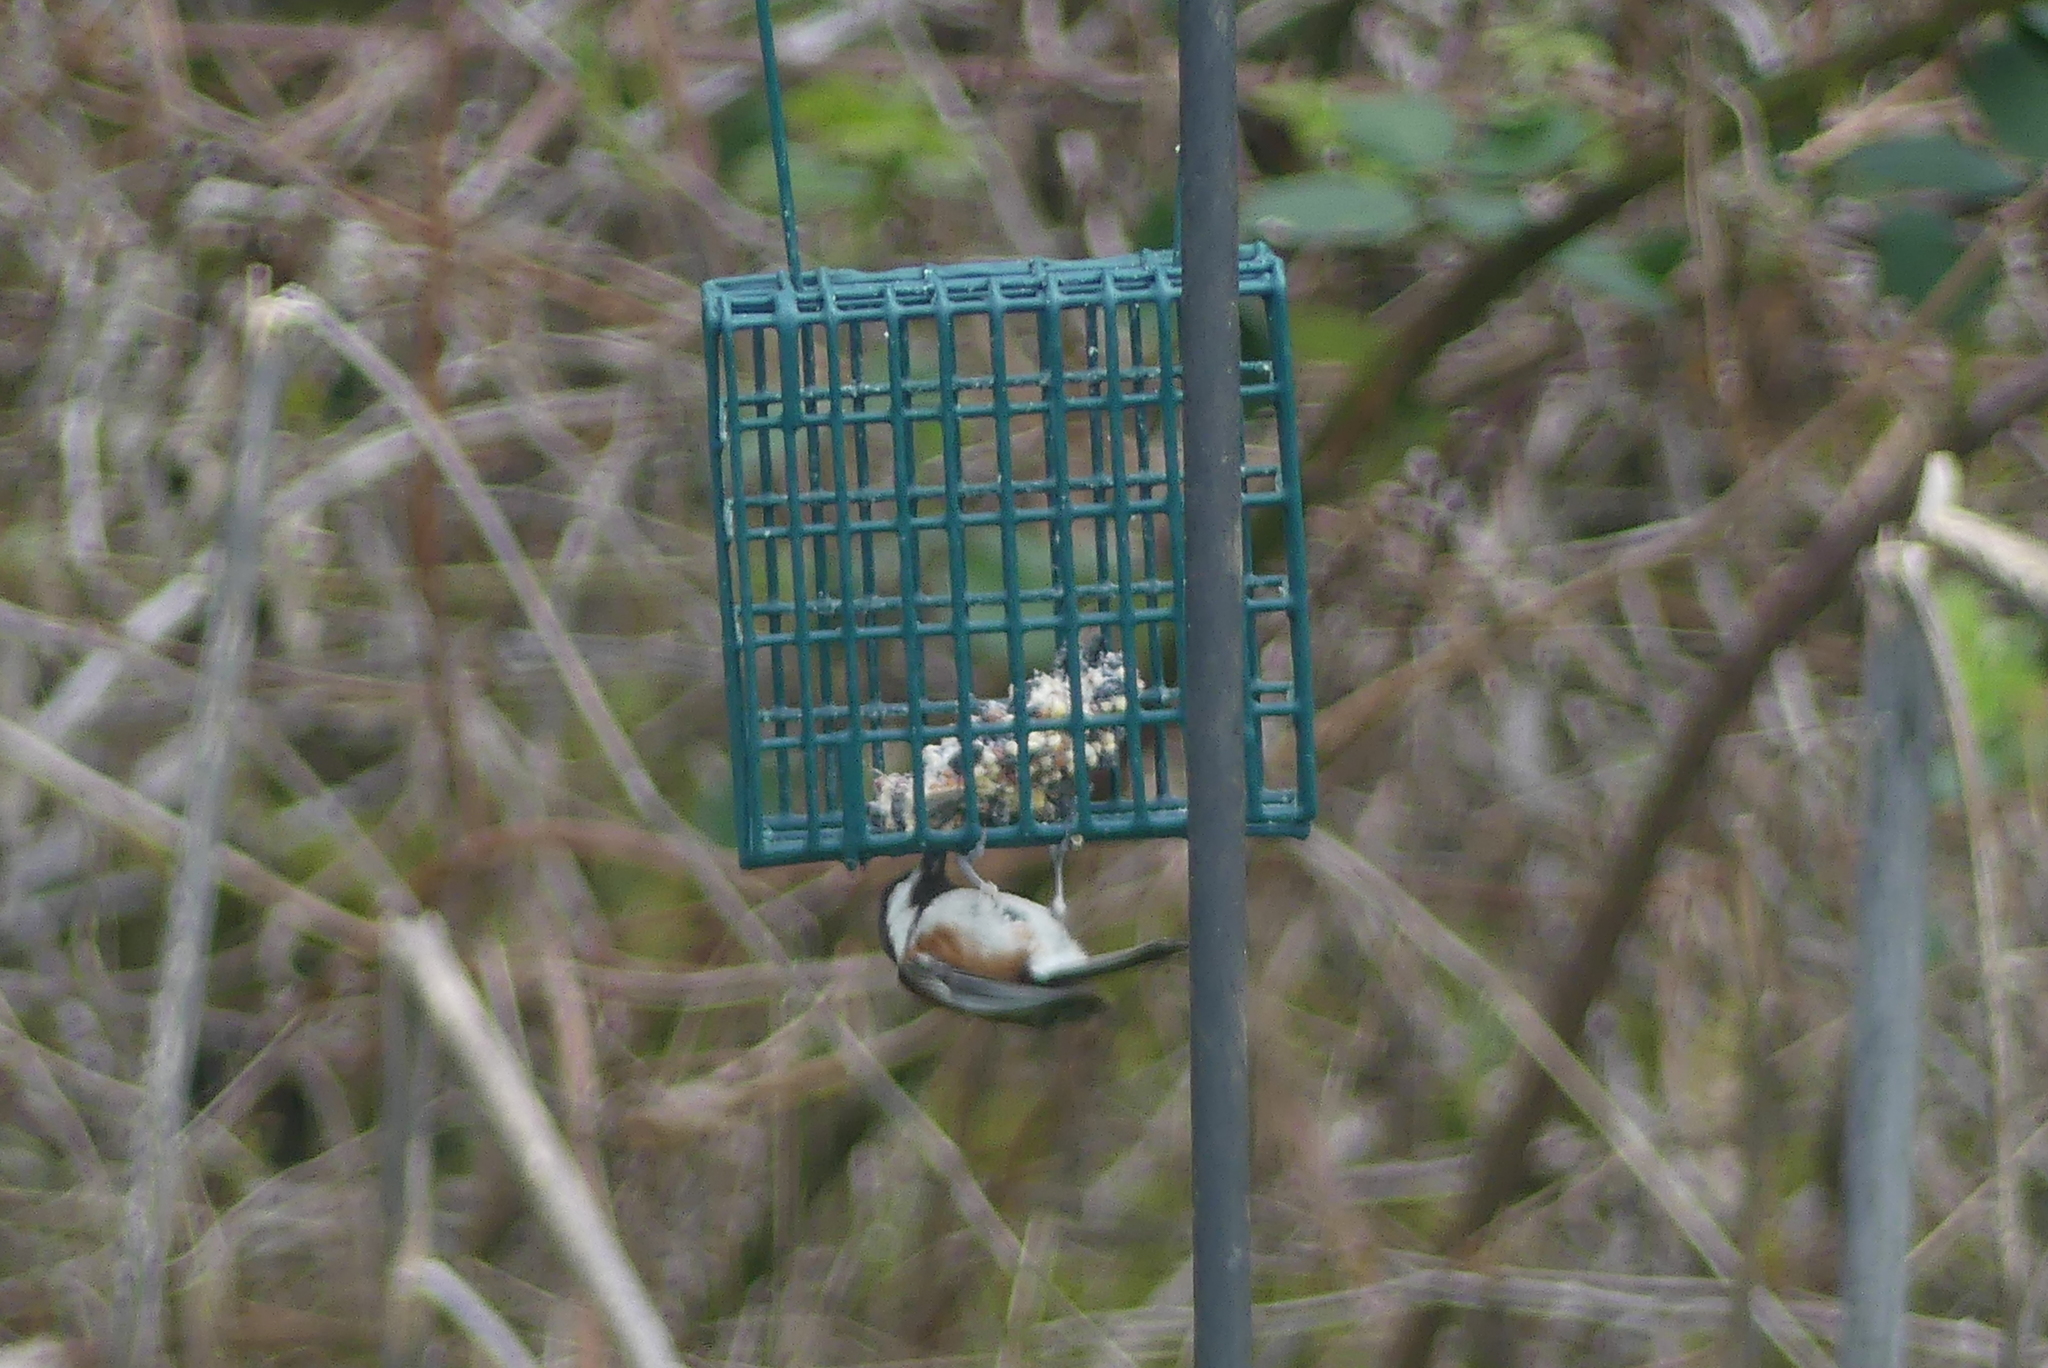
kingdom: Animalia
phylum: Chordata
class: Aves
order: Passeriformes
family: Paridae
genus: Poecile
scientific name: Poecile rufescens
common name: Chestnut-backed chickadee
